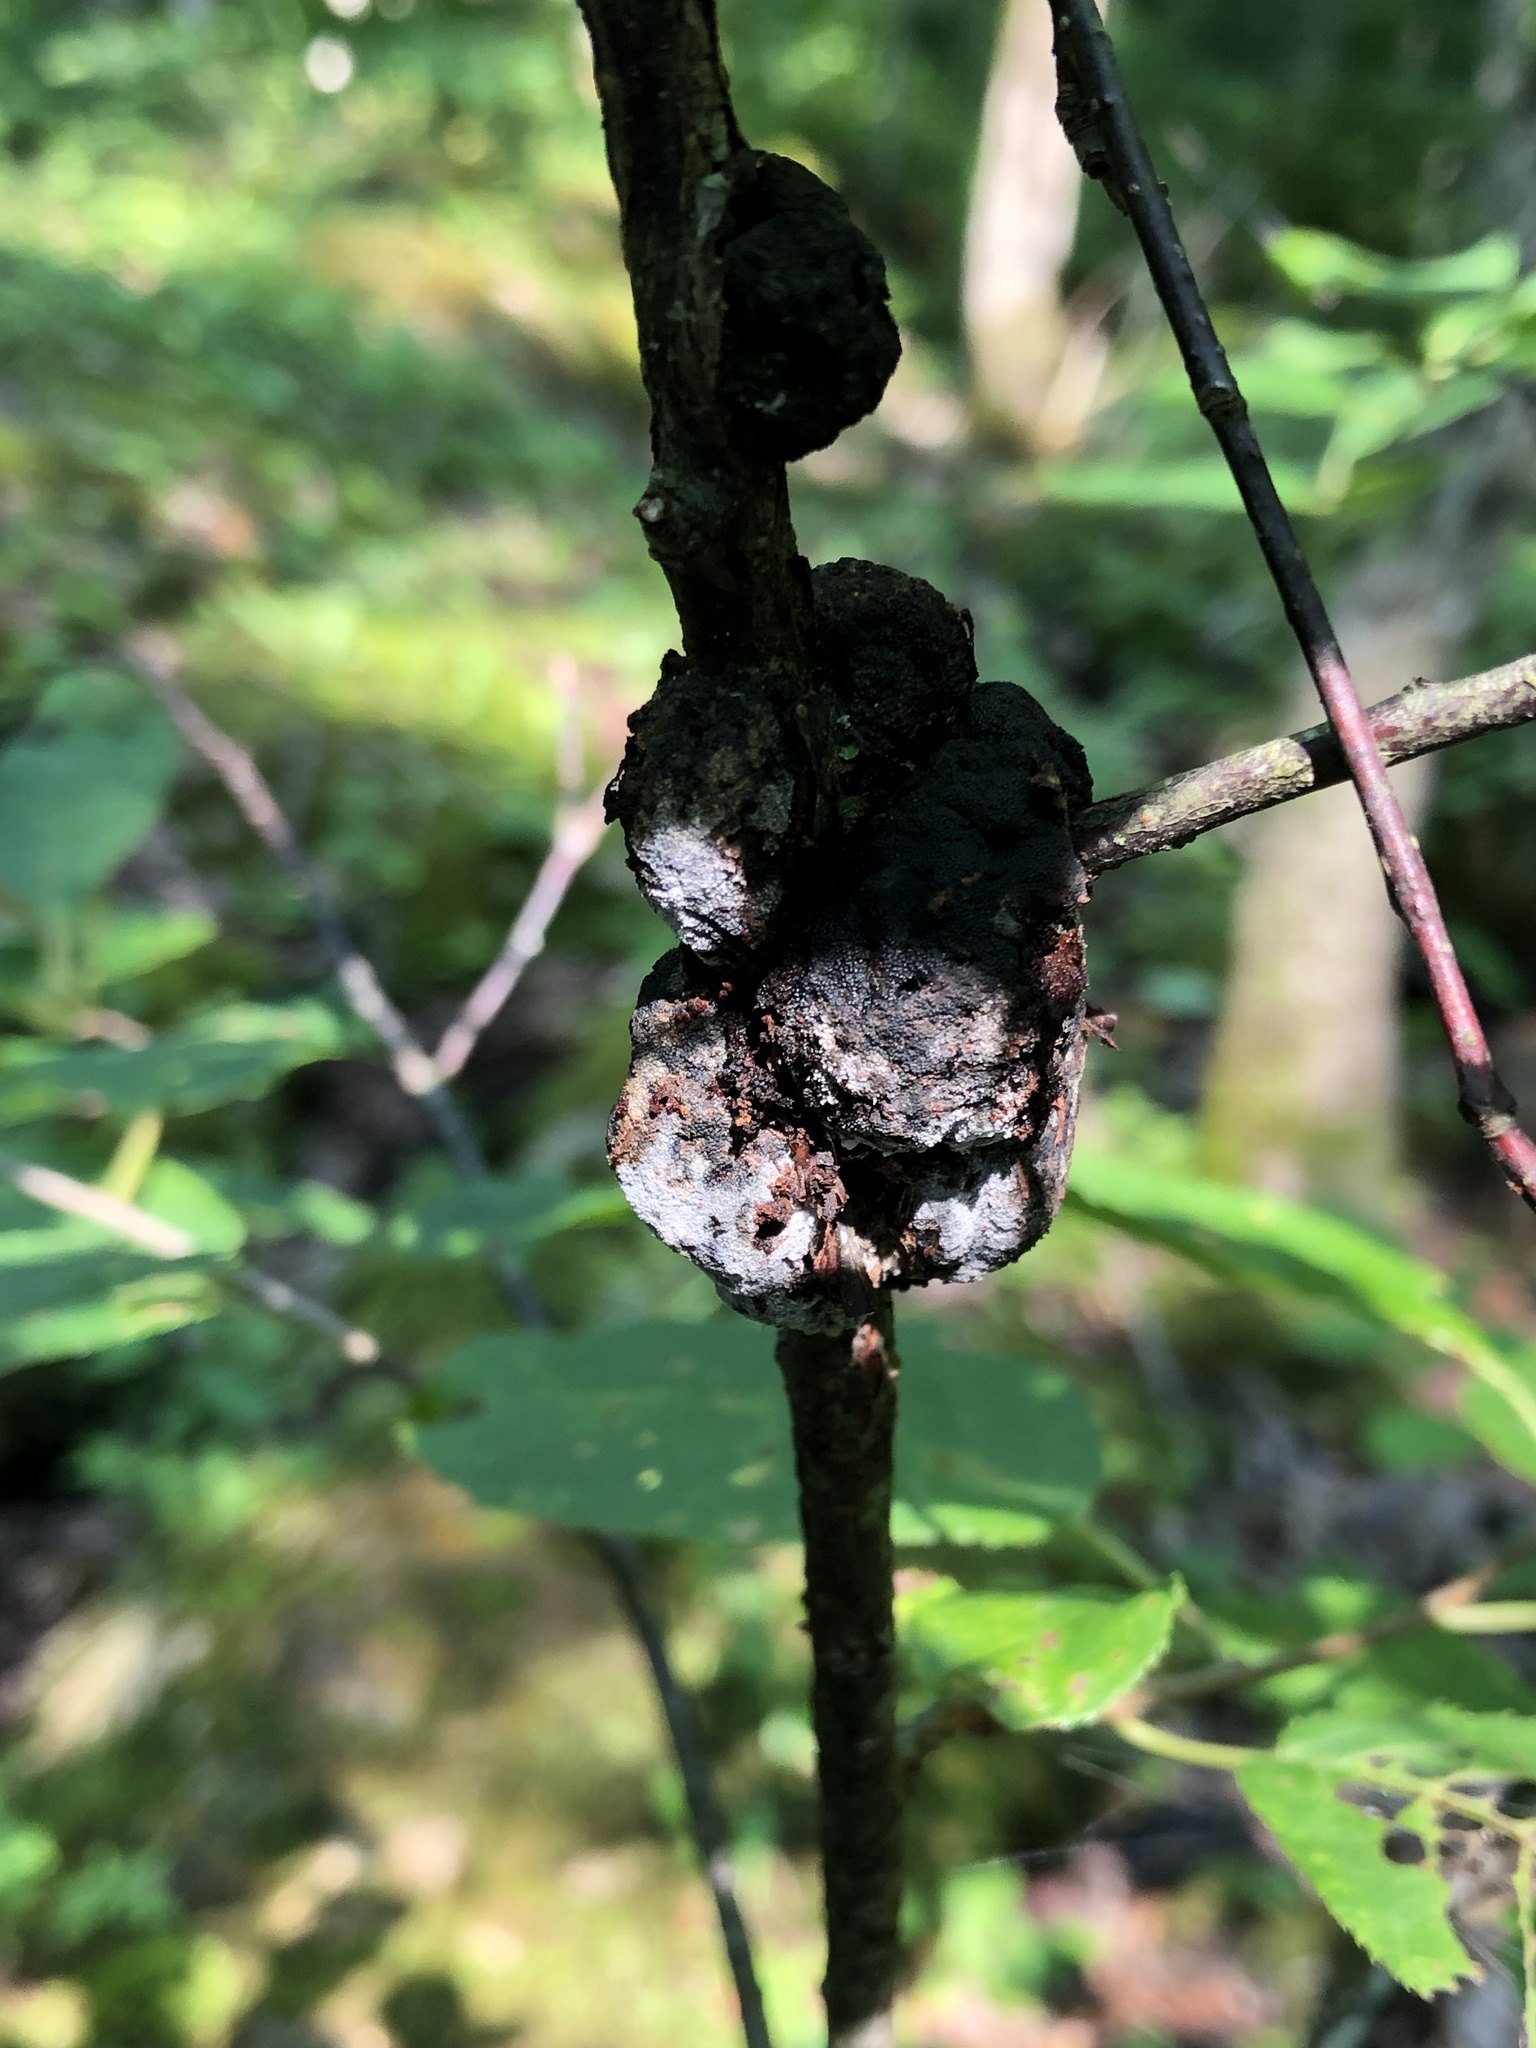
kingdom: Fungi
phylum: Ascomycota
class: Dothideomycetes
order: Venturiales
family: Venturiaceae
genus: Apiosporina
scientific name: Apiosporina morbosa
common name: Black knot
